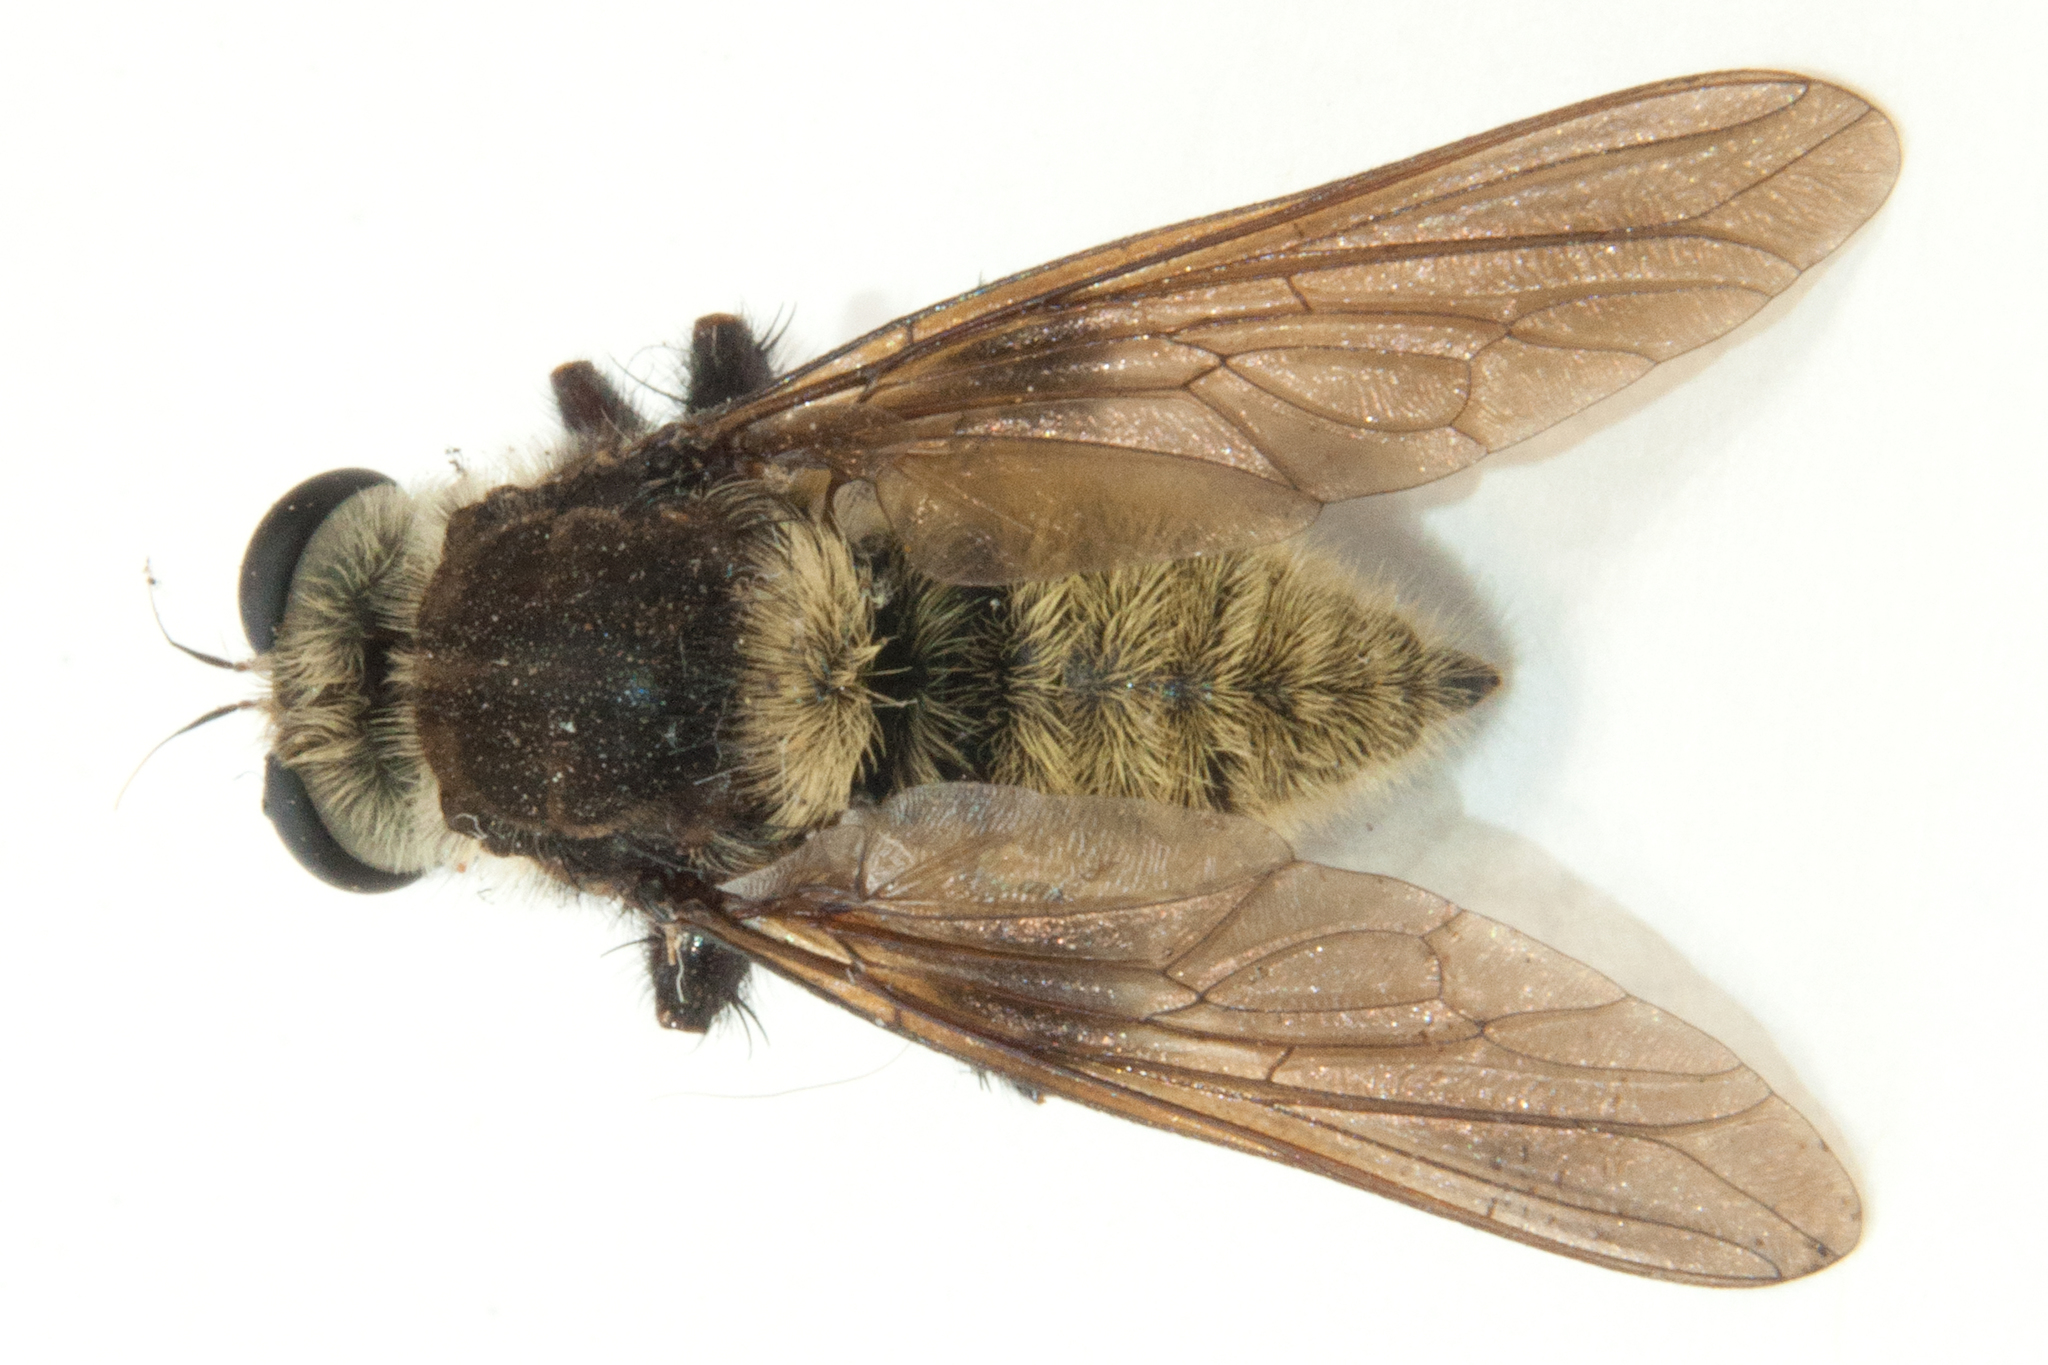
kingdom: Animalia
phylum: Arthropoda
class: Insecta
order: Diptera
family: Asilidae
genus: Mallophora
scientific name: Mallophora fautrix
